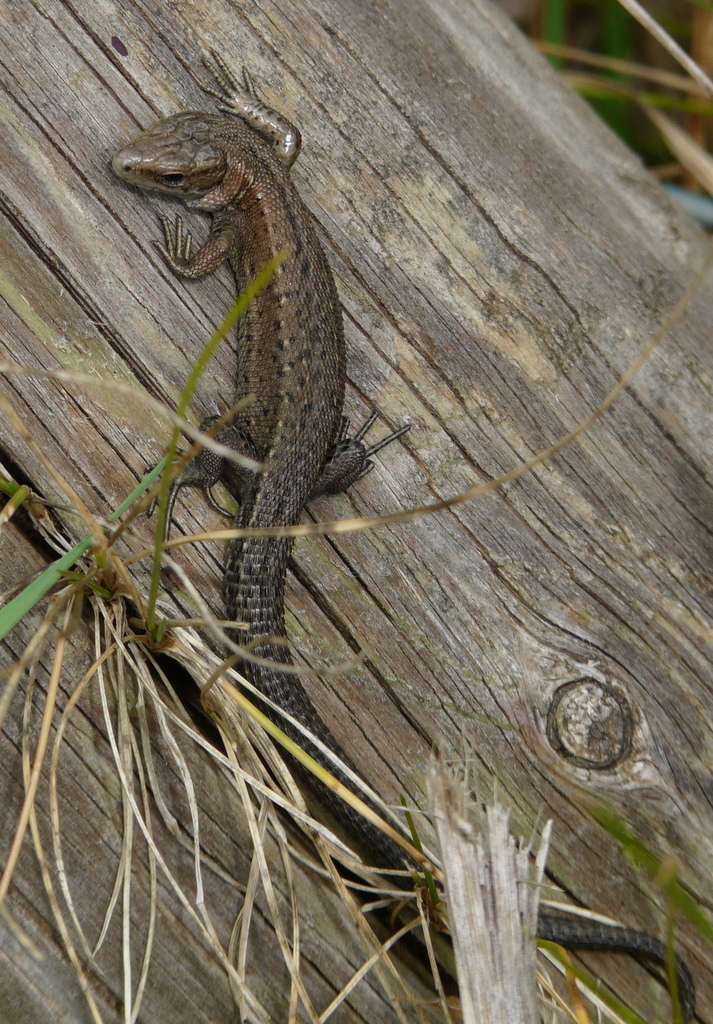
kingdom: Animalia
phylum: Chordata
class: Squamata
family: Lacertidae
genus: Zootoca
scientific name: Zootoca vivipara
